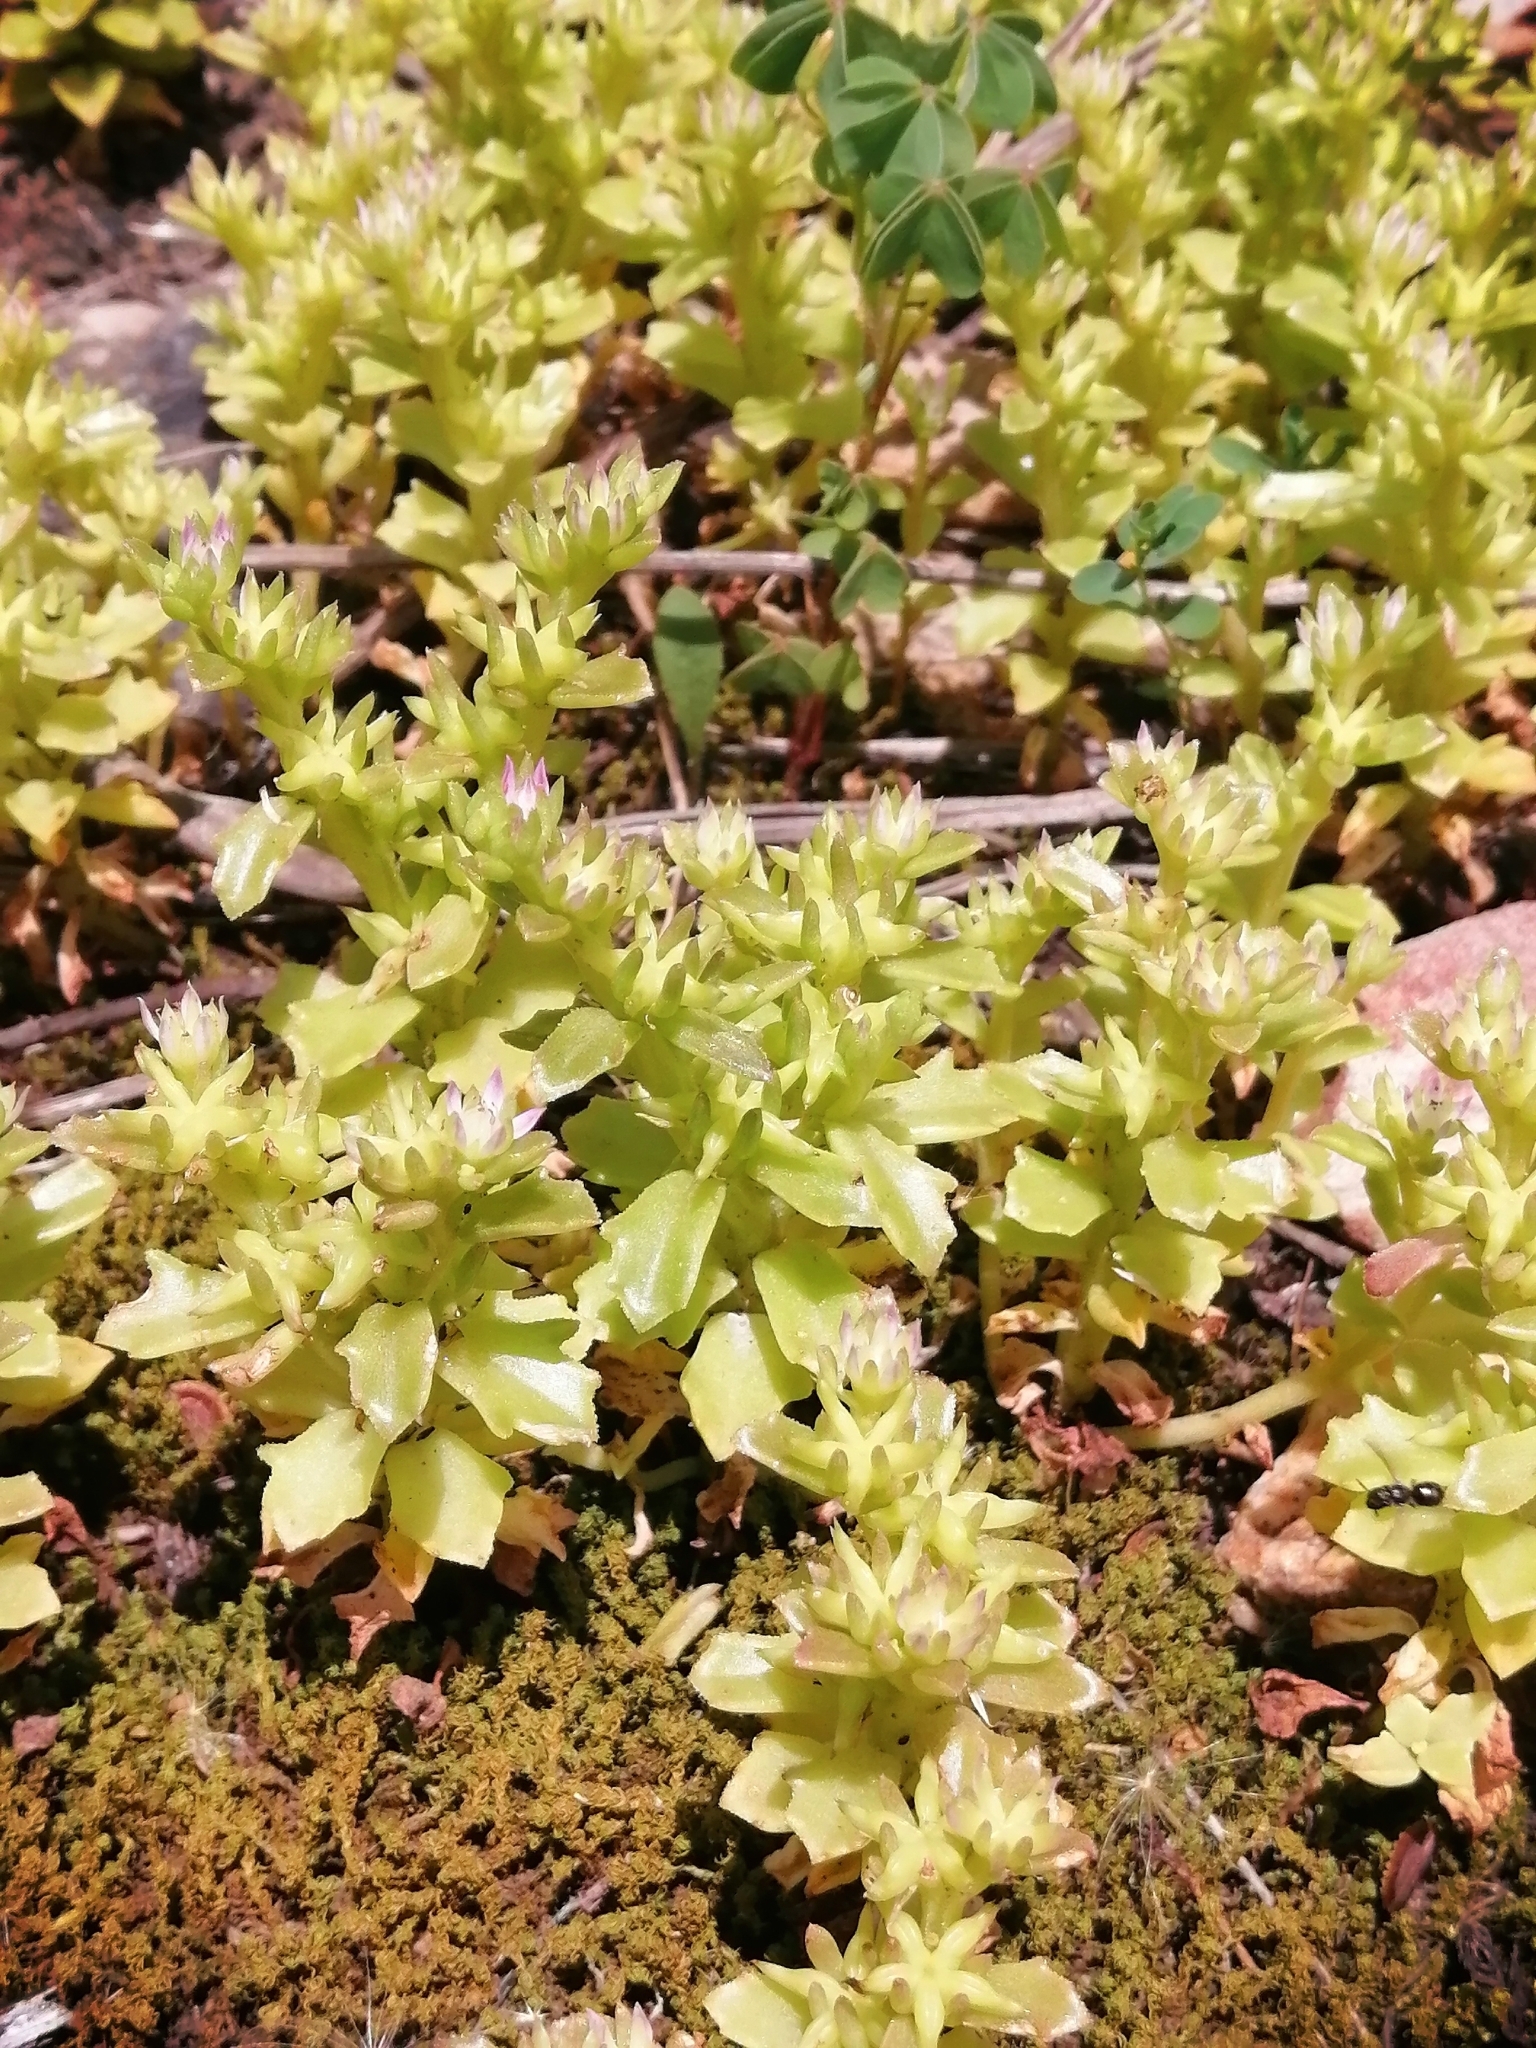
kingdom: Plantae
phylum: Tracheophyta
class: Magnoliopsida
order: Saxifragales
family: Crassulaceae
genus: Phedimus
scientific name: Phedimus stellatus
